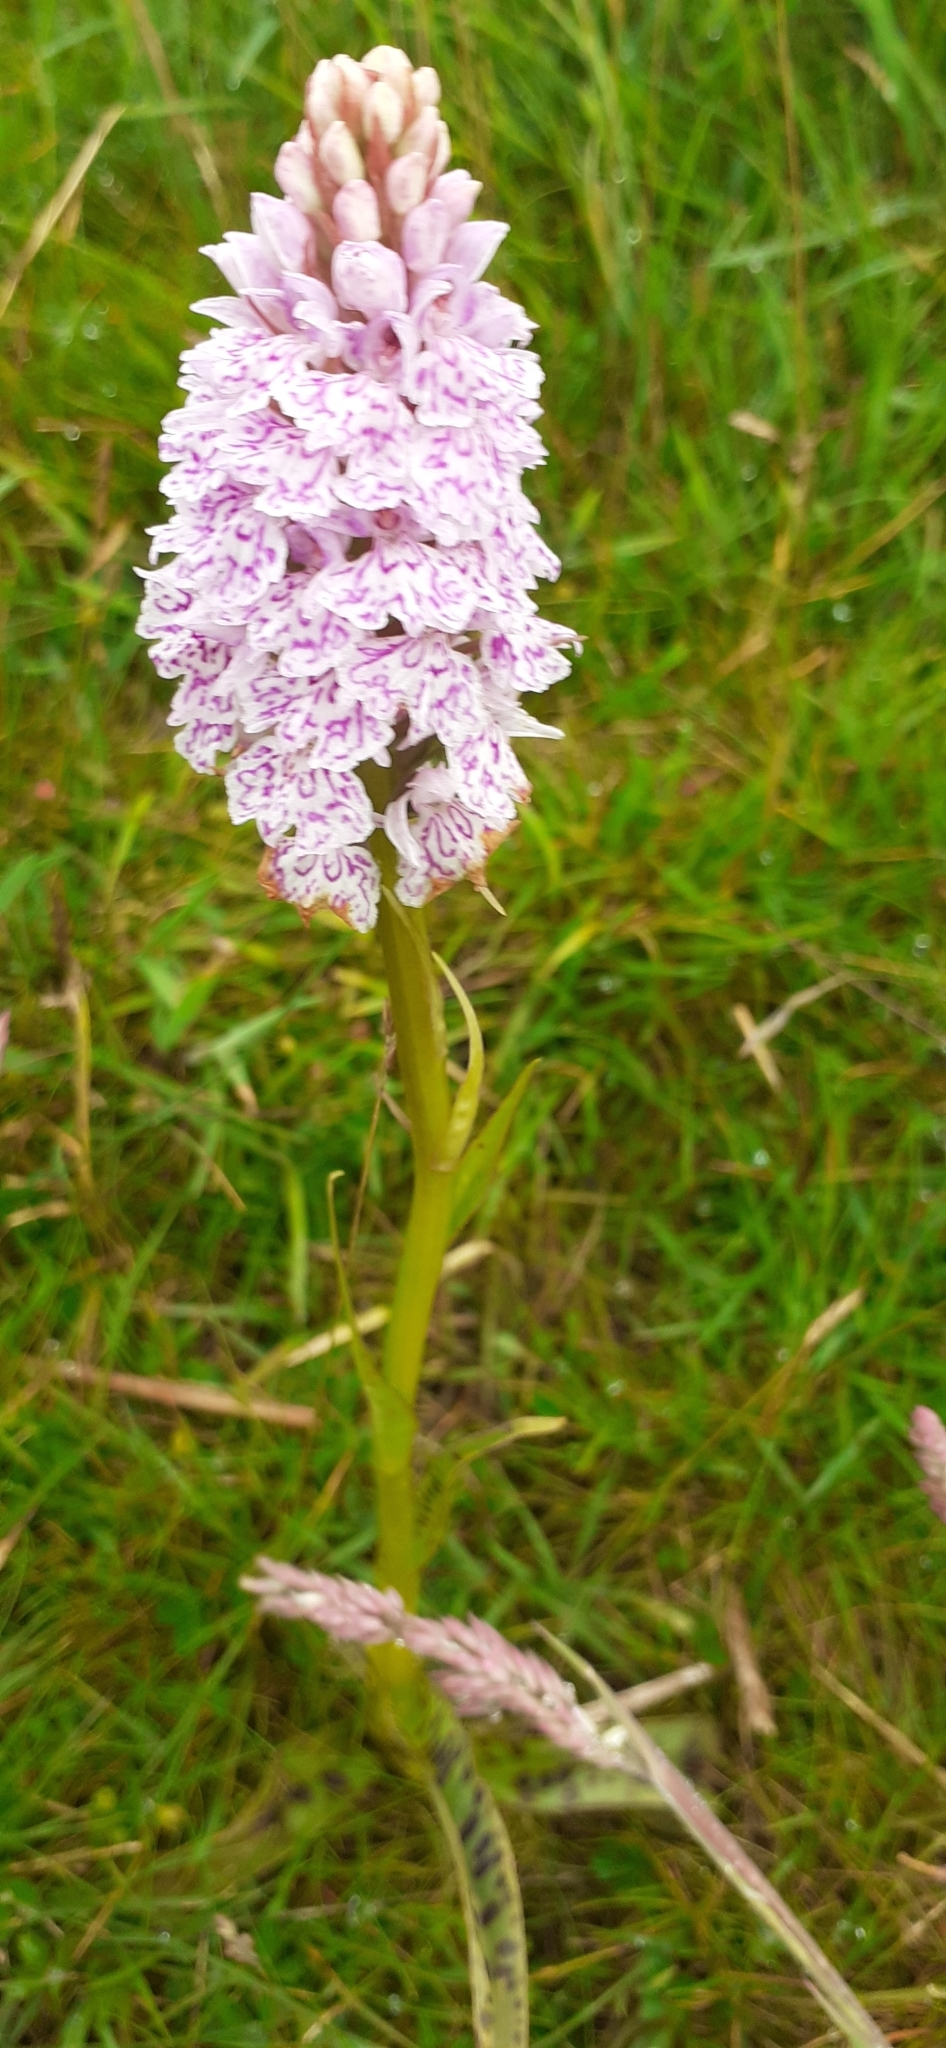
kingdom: Plantae
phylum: Tracheophyta
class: Liliopsida
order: Asparagales
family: Orchidaceae
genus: Dactylorhiza
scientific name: Dactylorhiza maculata
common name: Heath spotted-orchid
